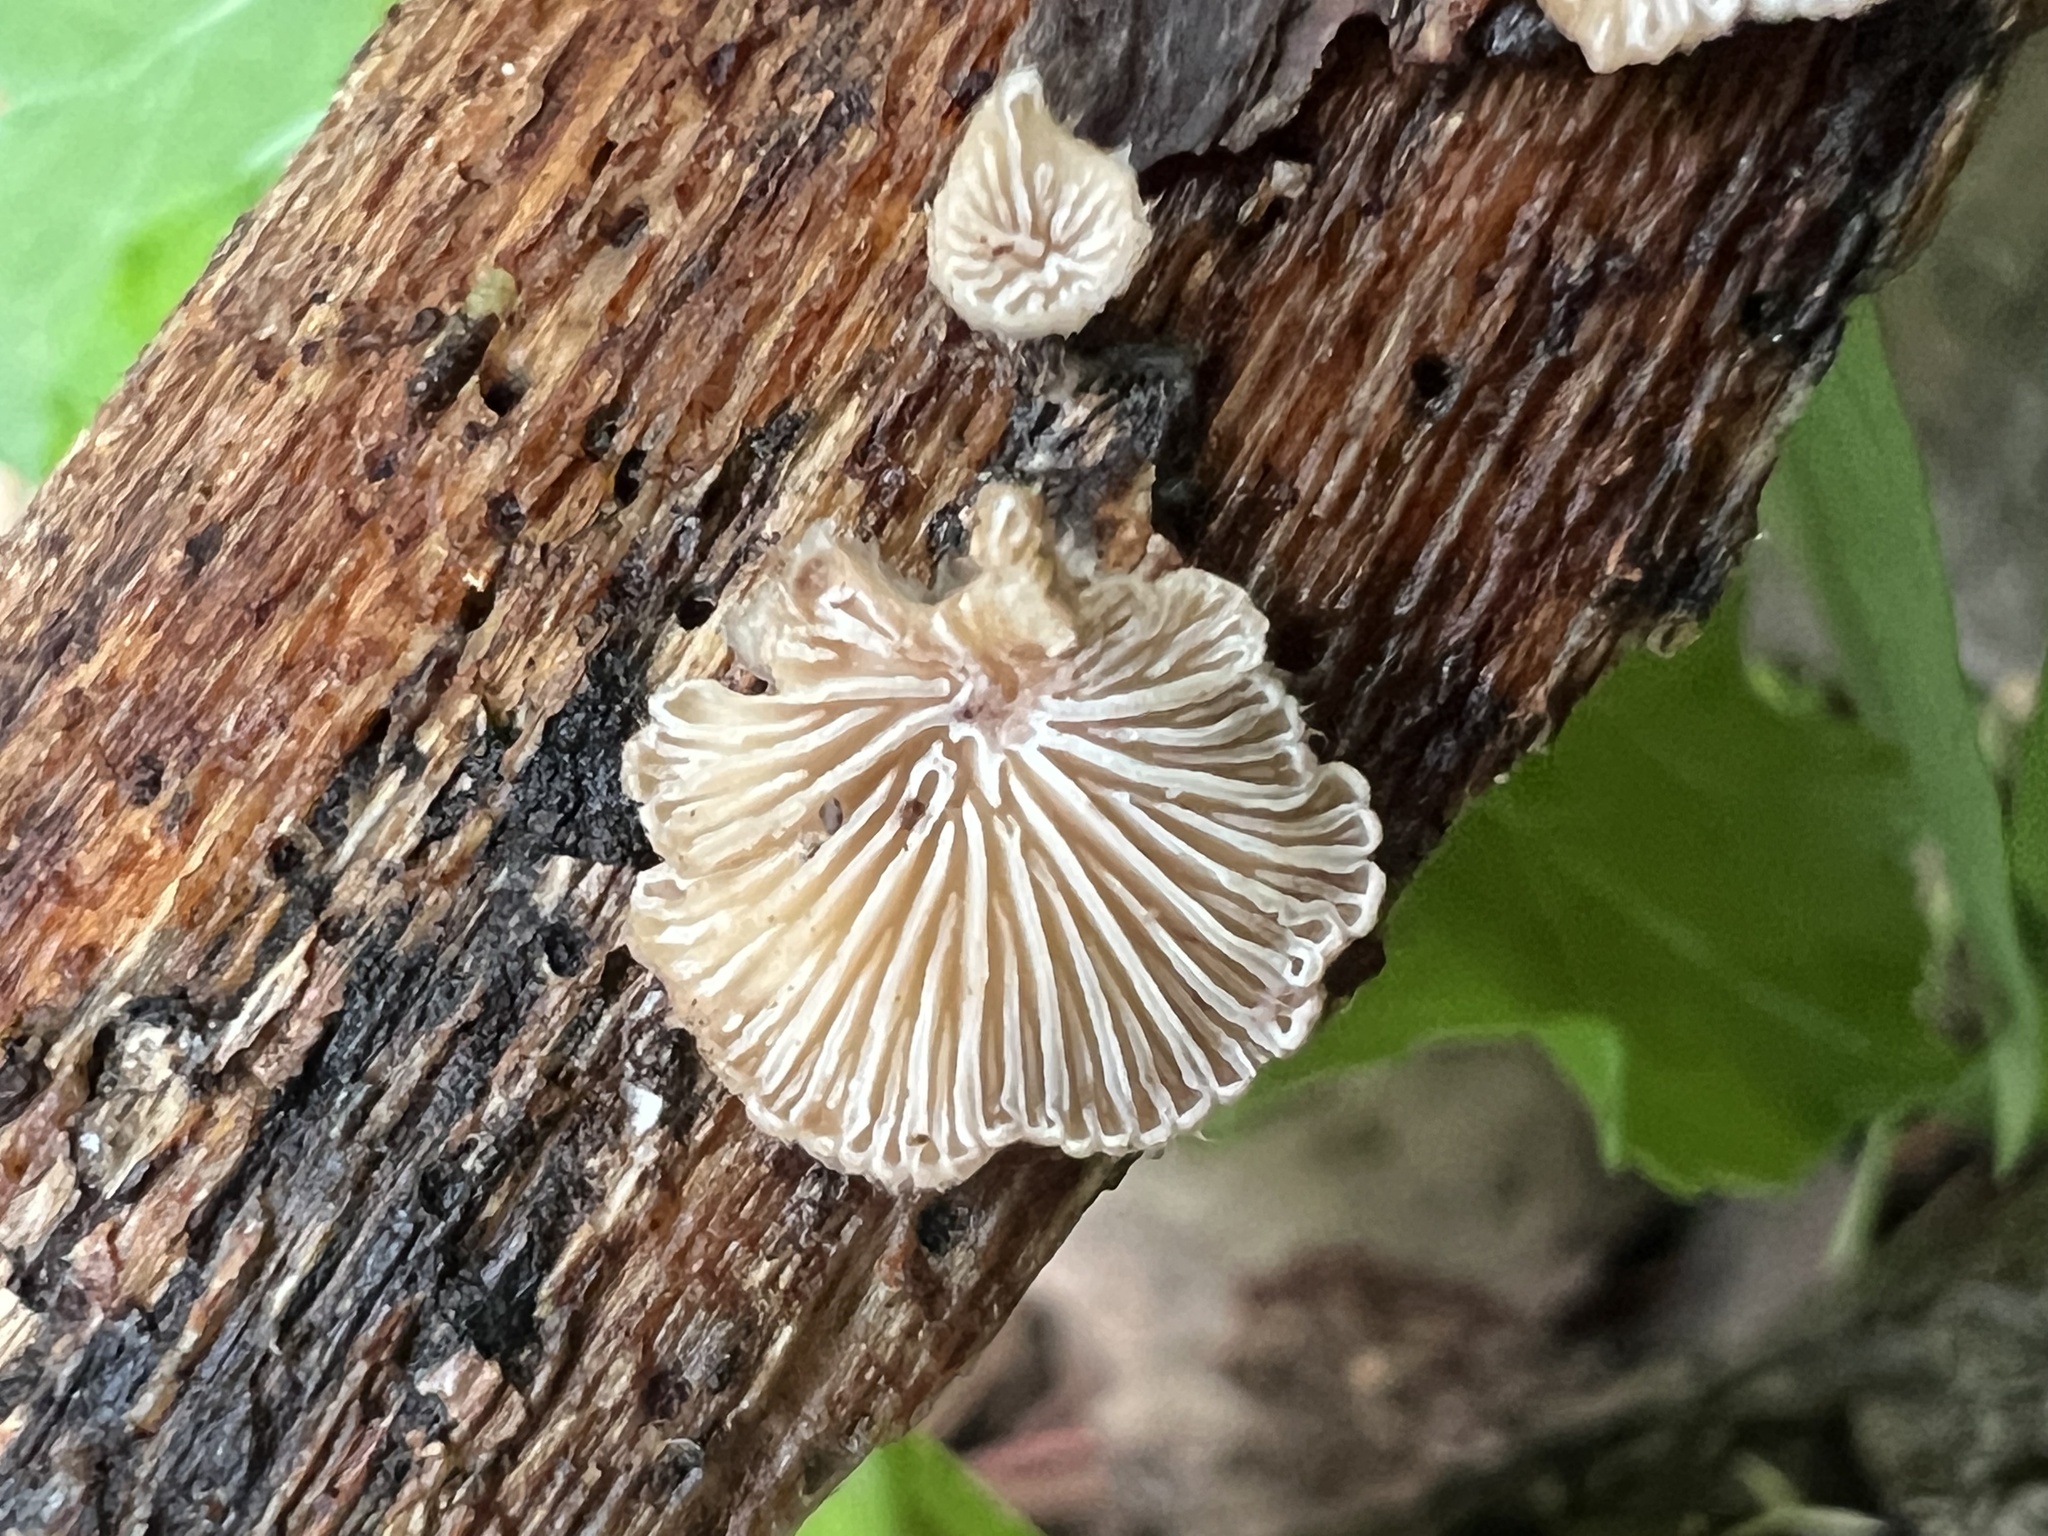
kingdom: Fungi
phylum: Basidiomycota
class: Agaricomycetes
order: Agaricales
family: Schizophyllaceae
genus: Schizophyllum
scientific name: Schizophyllum commune
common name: Common porecrust
